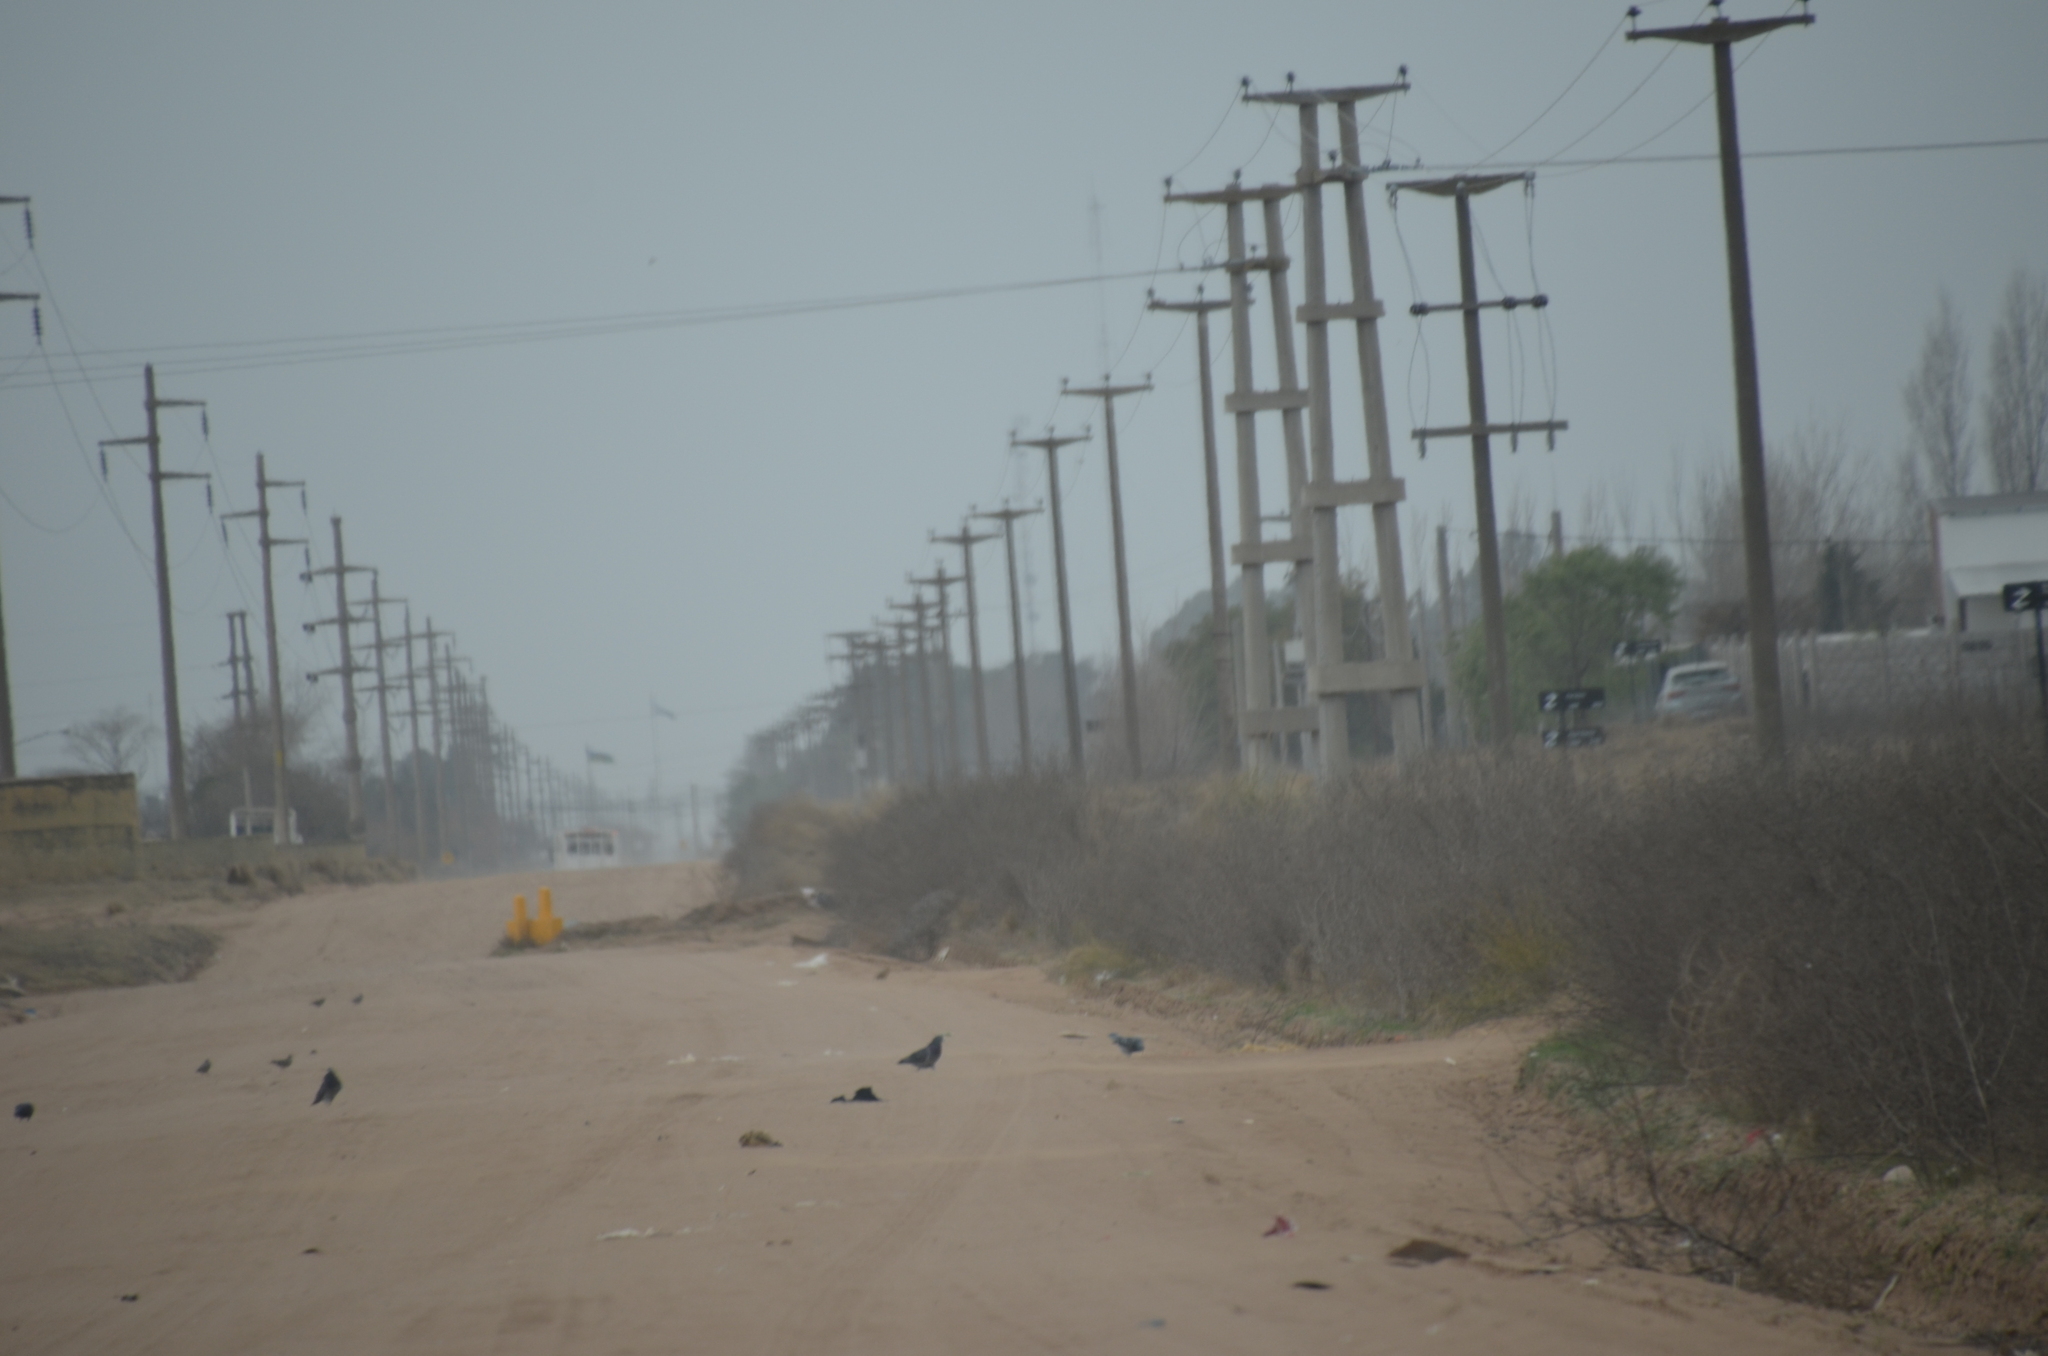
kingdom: Animalia
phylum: Chordata
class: Aves
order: Columbiformes
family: Columbidae
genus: Columba
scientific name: Columba livia
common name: Rock pigeon
